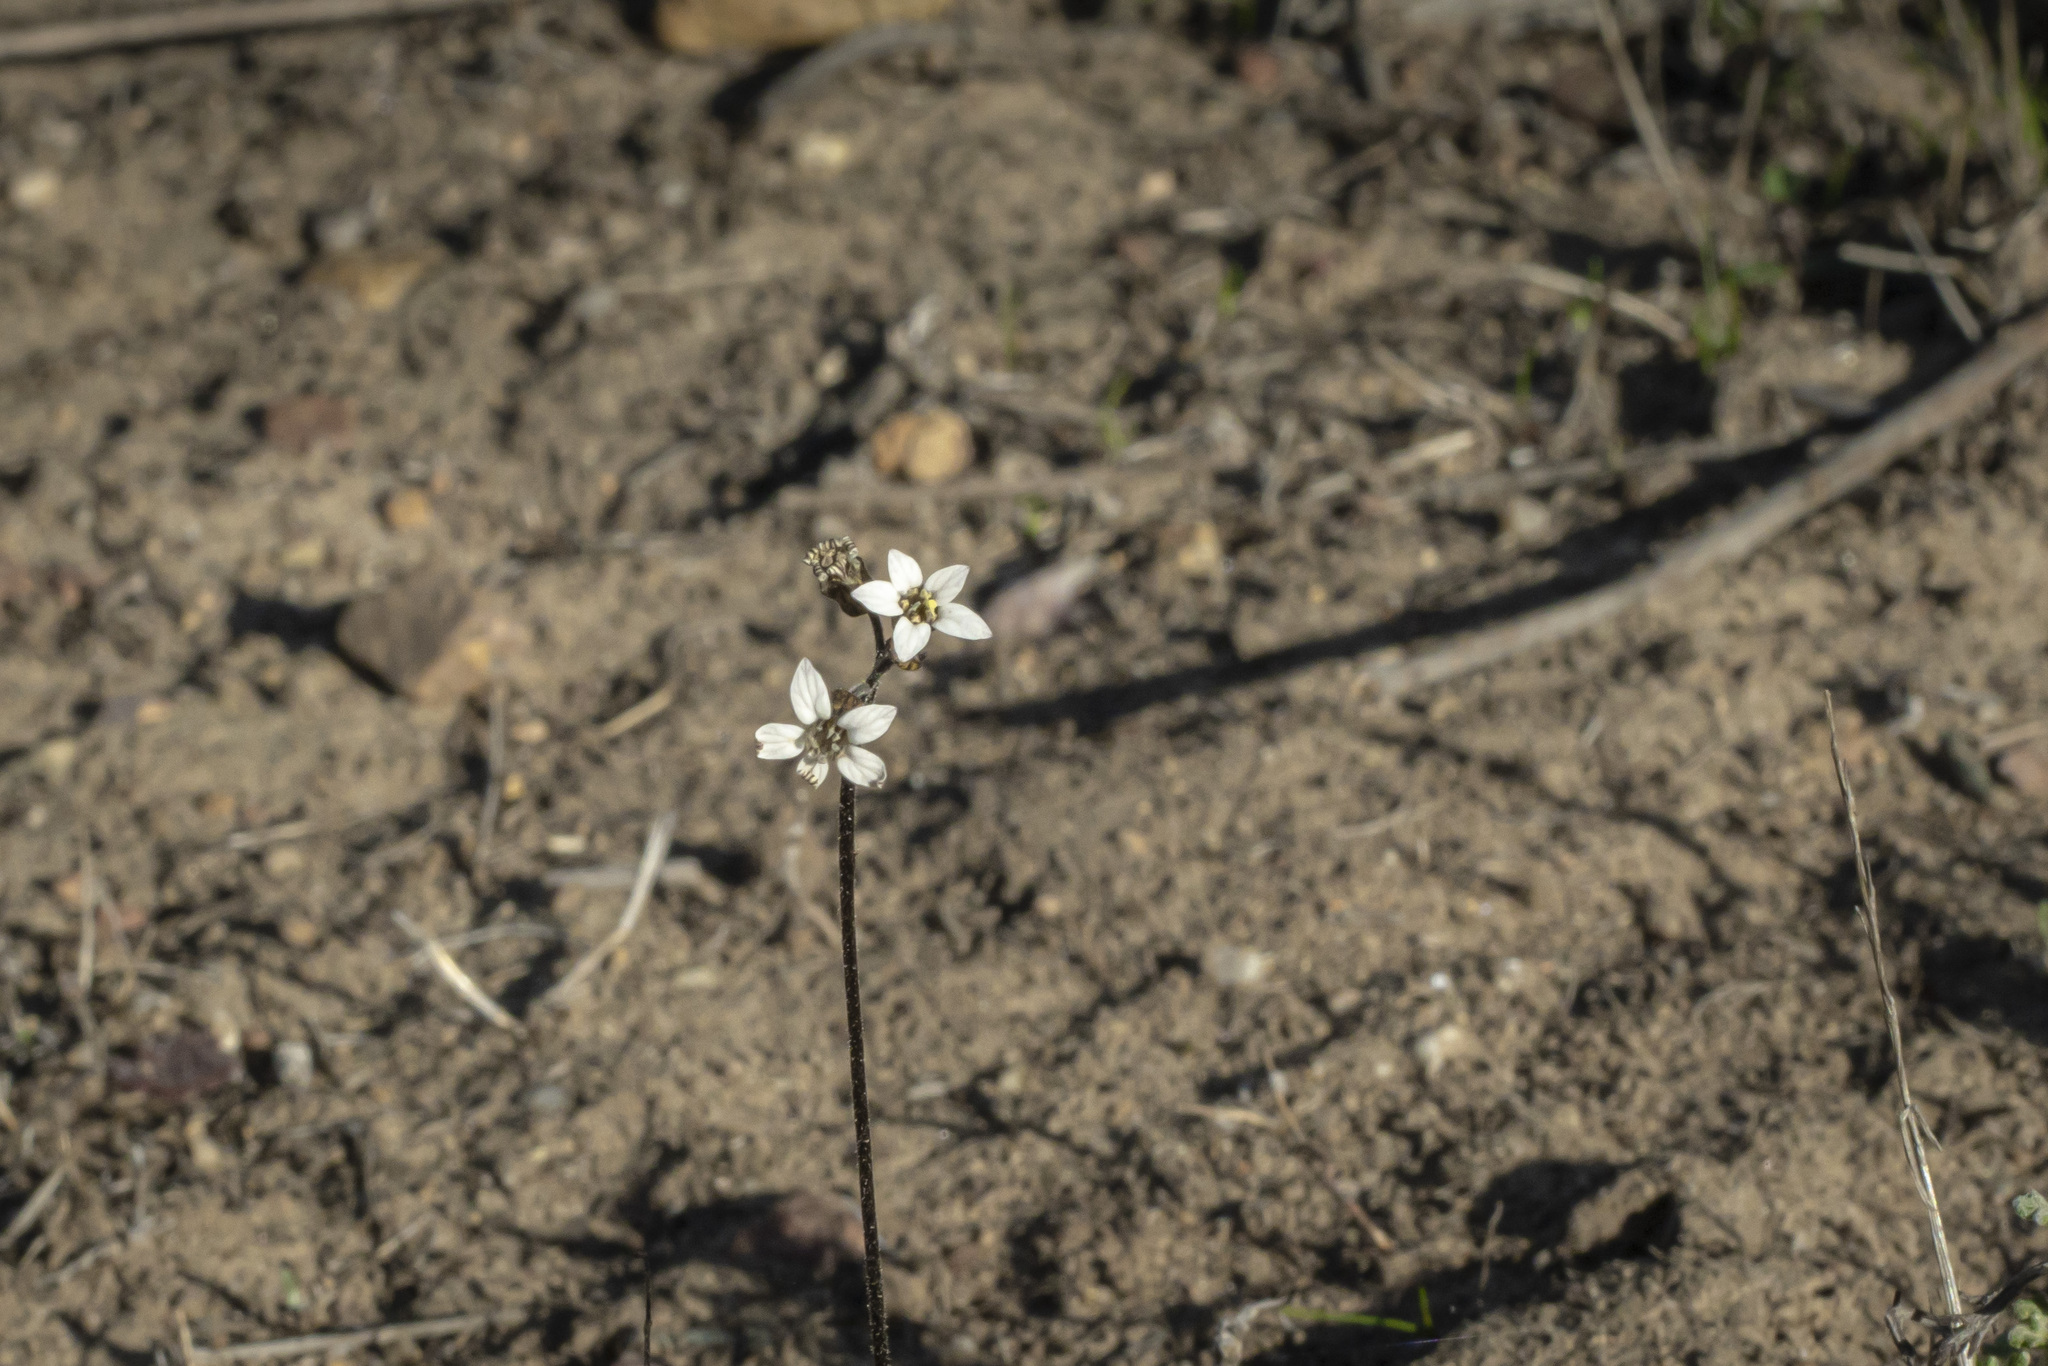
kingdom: Plantae
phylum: Tracheophyta
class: Magnoliopsida
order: Saxifragales
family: Saxifragaceae
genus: Jepsonia
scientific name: Jepsonia parryi
